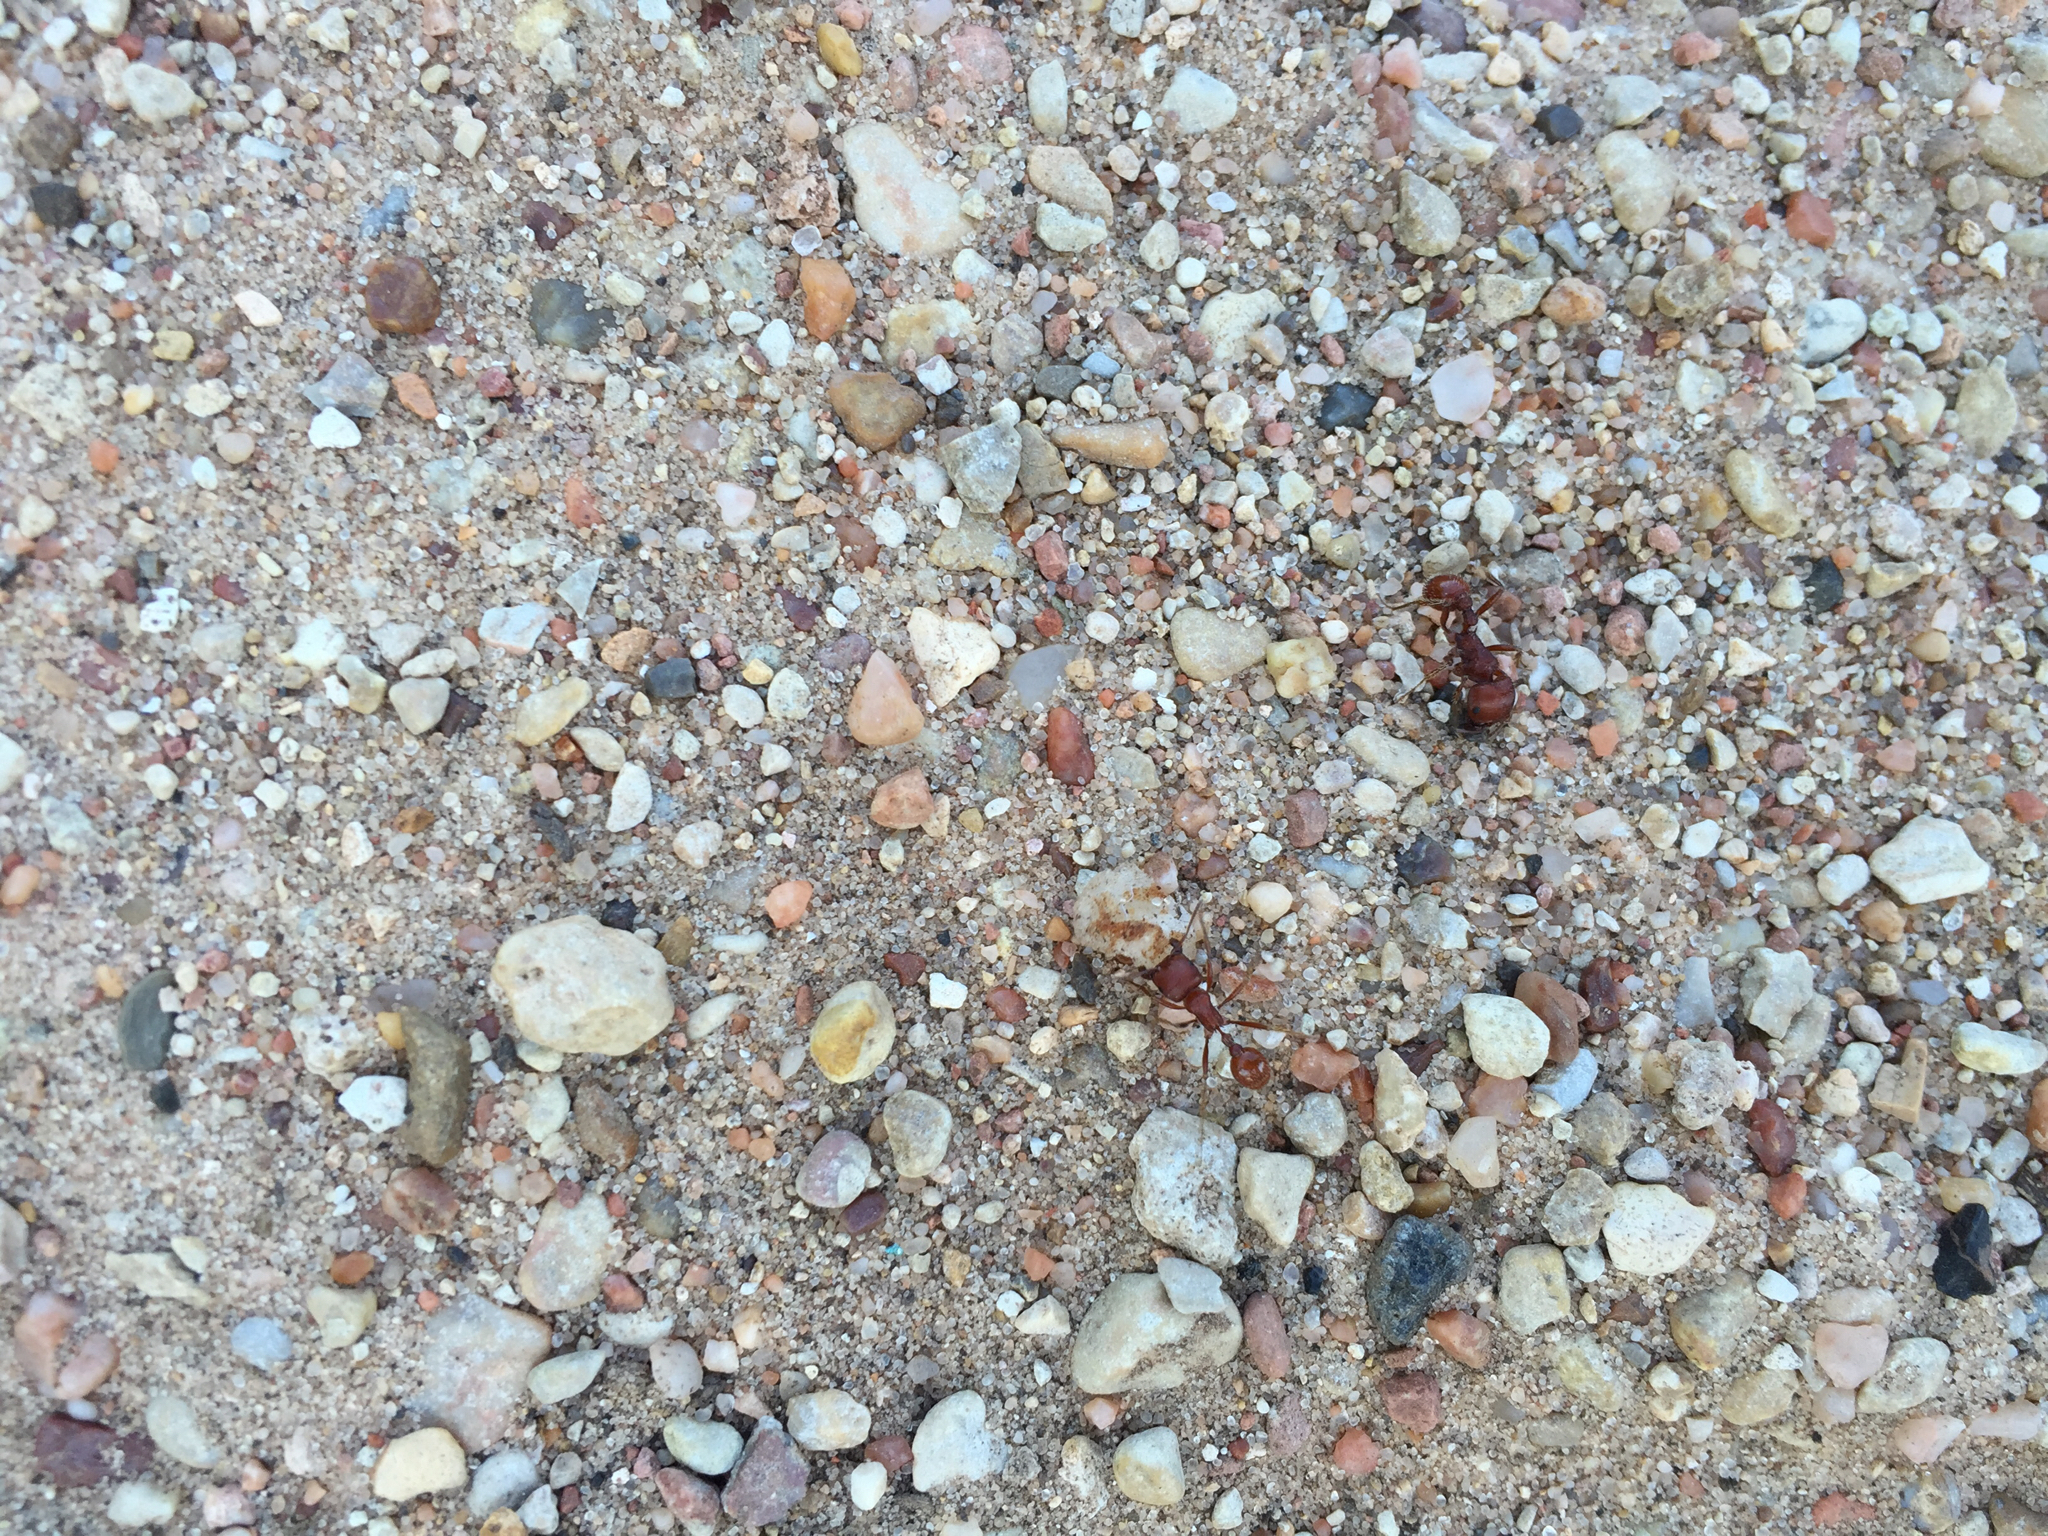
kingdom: Animalia
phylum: Arthropoda
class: Insecta
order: Hymenoptera
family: Formicidae
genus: Pogonomyrmex
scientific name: Pogonomyrmex barbatus
